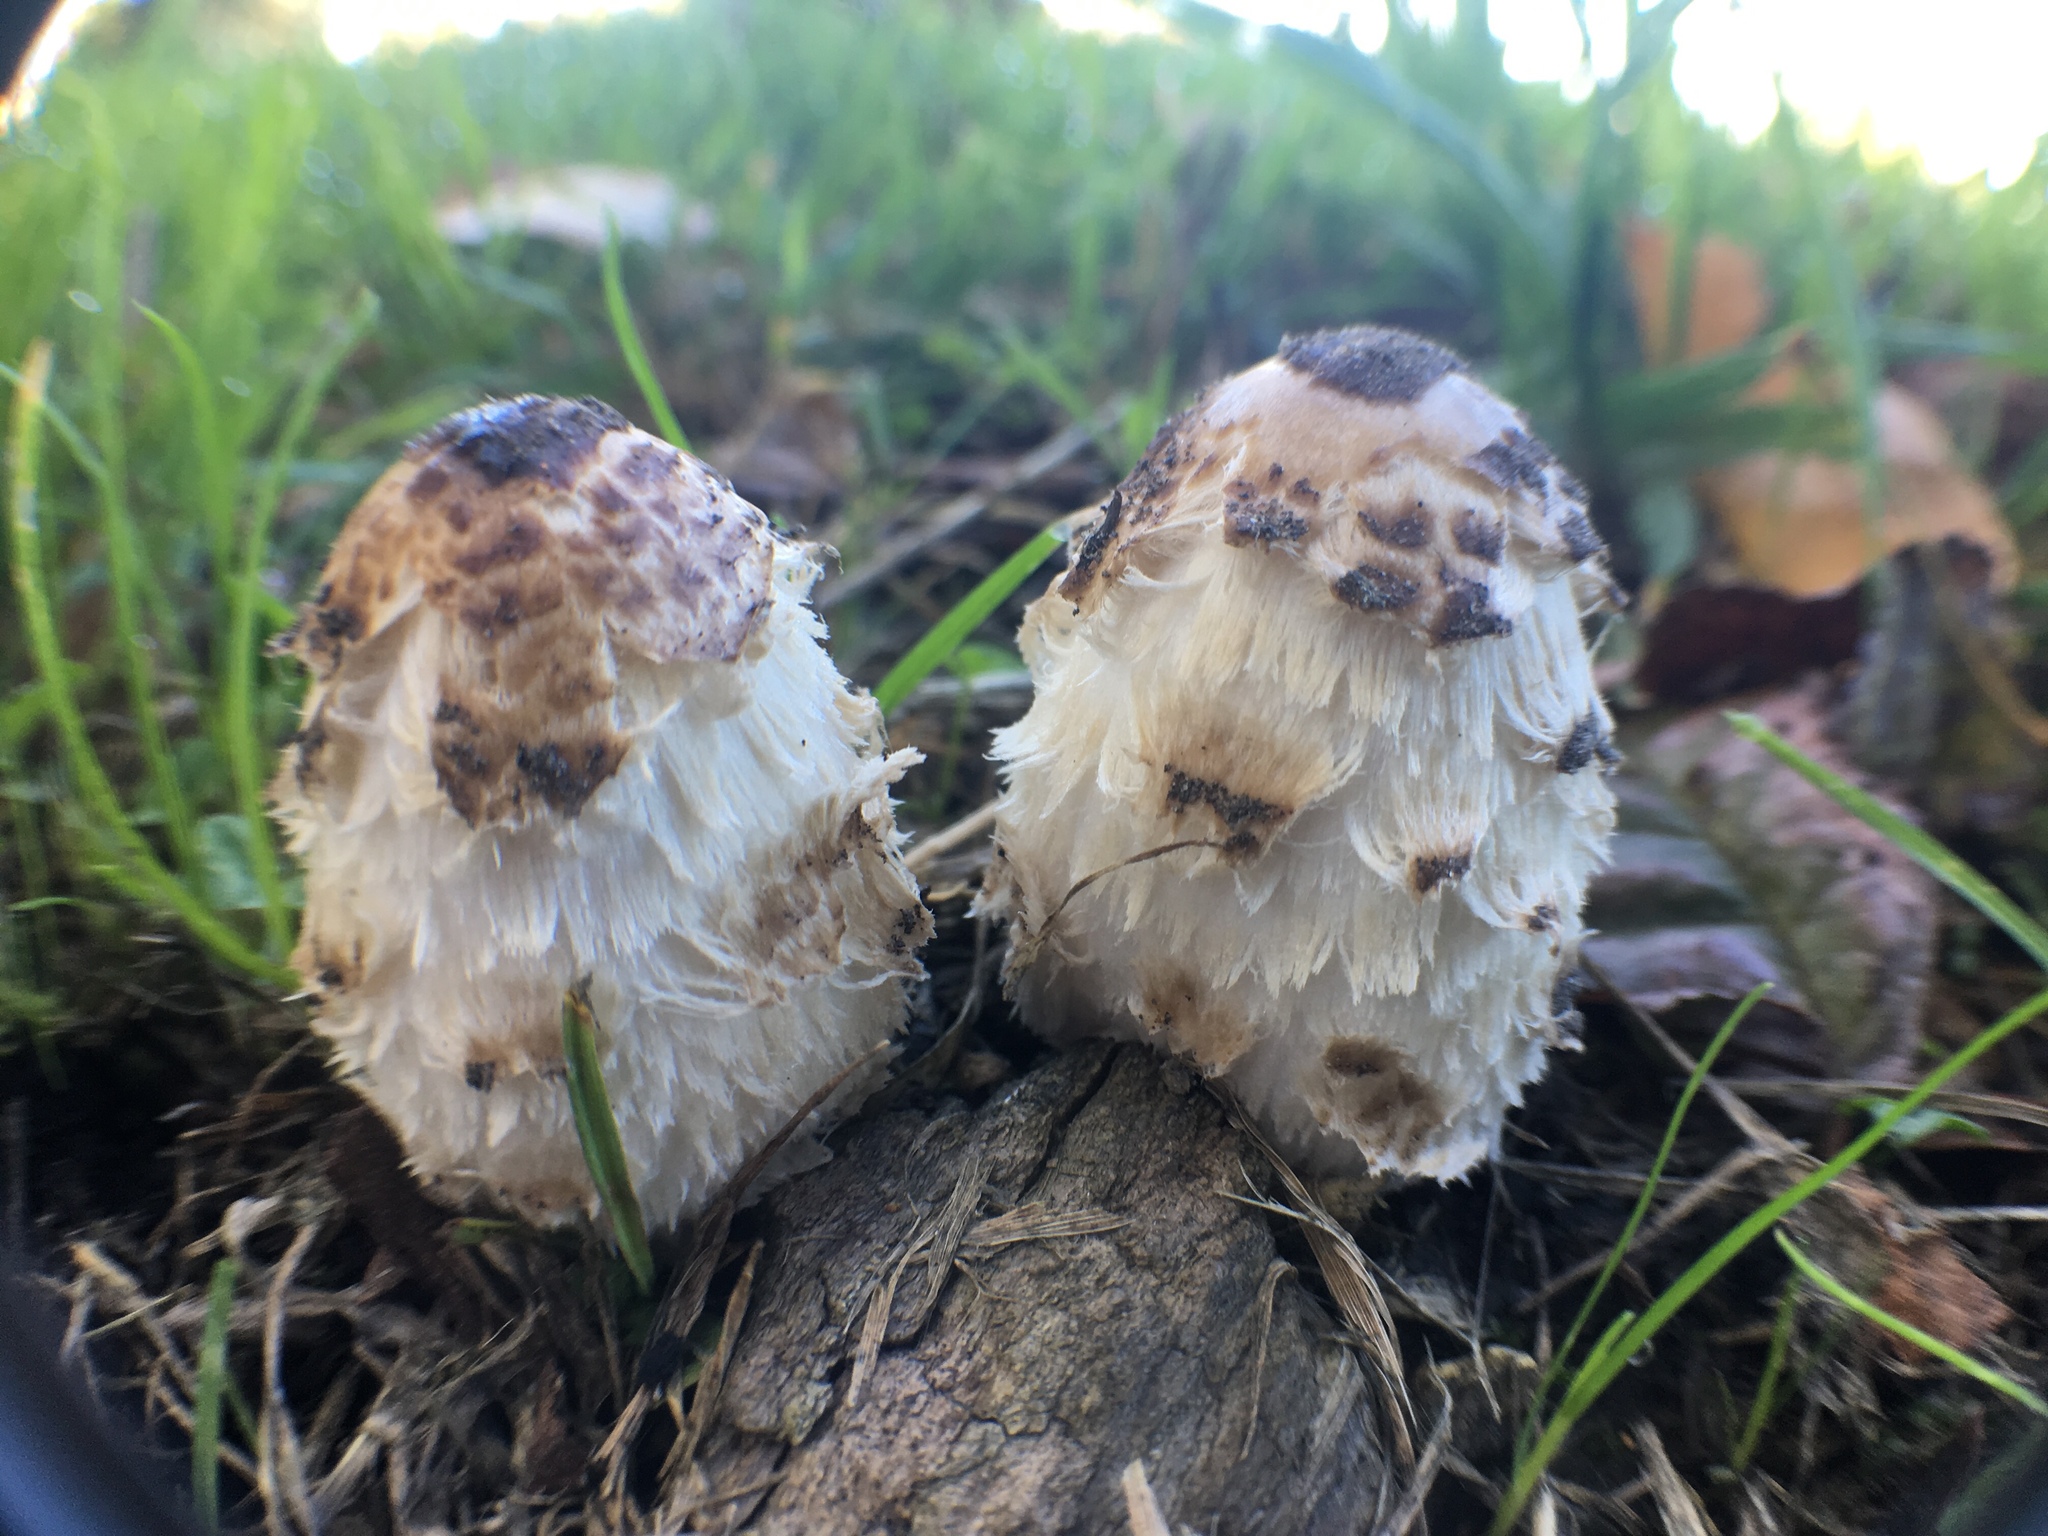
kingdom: Fungi
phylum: Basidiomycota
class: Agaricomycetes
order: Agaricales
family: Agaricaceae
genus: Coprinus
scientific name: Coprinus comatus
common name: Lawyer's wig
